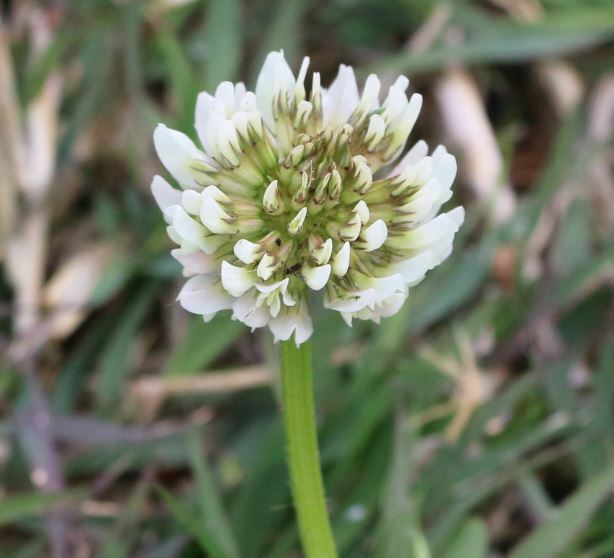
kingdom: Plantae
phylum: Tracheophyta
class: Magnoliopsida
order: Fabales
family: Fabaceae
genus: Trifolium
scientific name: Trifolium repens
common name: White clover
